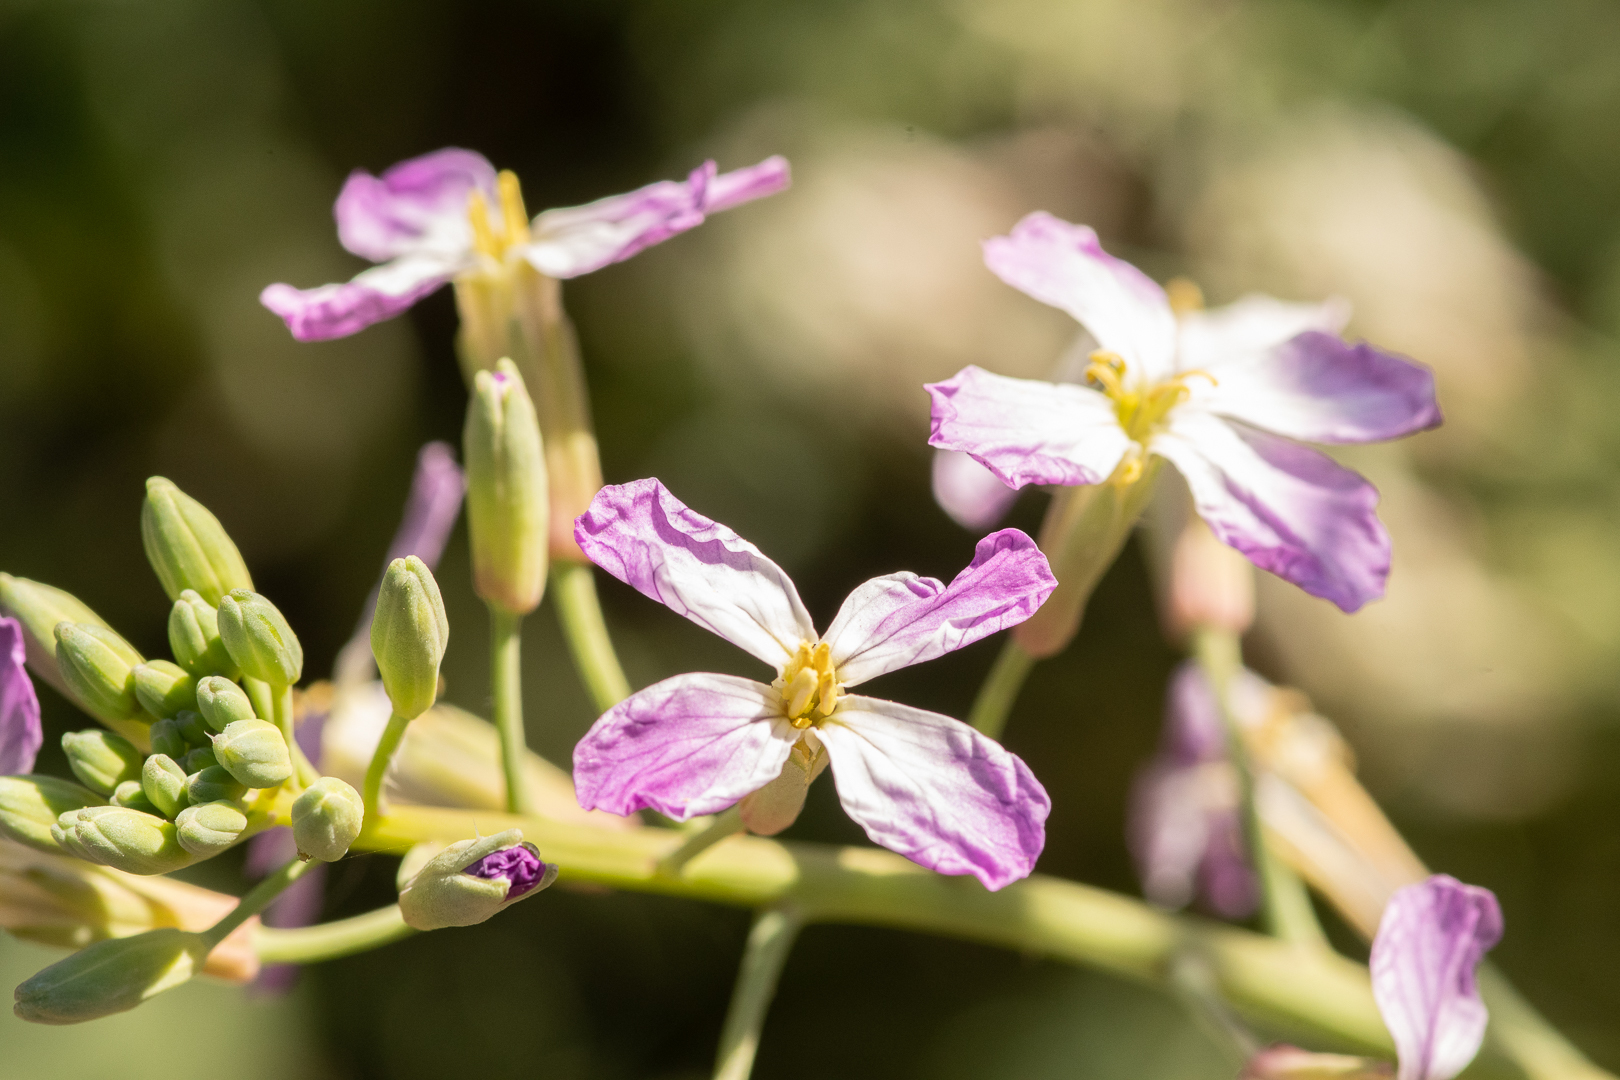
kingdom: Plantae
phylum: Tracheophyta
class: Magnoliopsida
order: Brassicales
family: Brassicaceae
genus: Raphanus
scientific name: Raphanus sativus
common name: Cultivated radish
